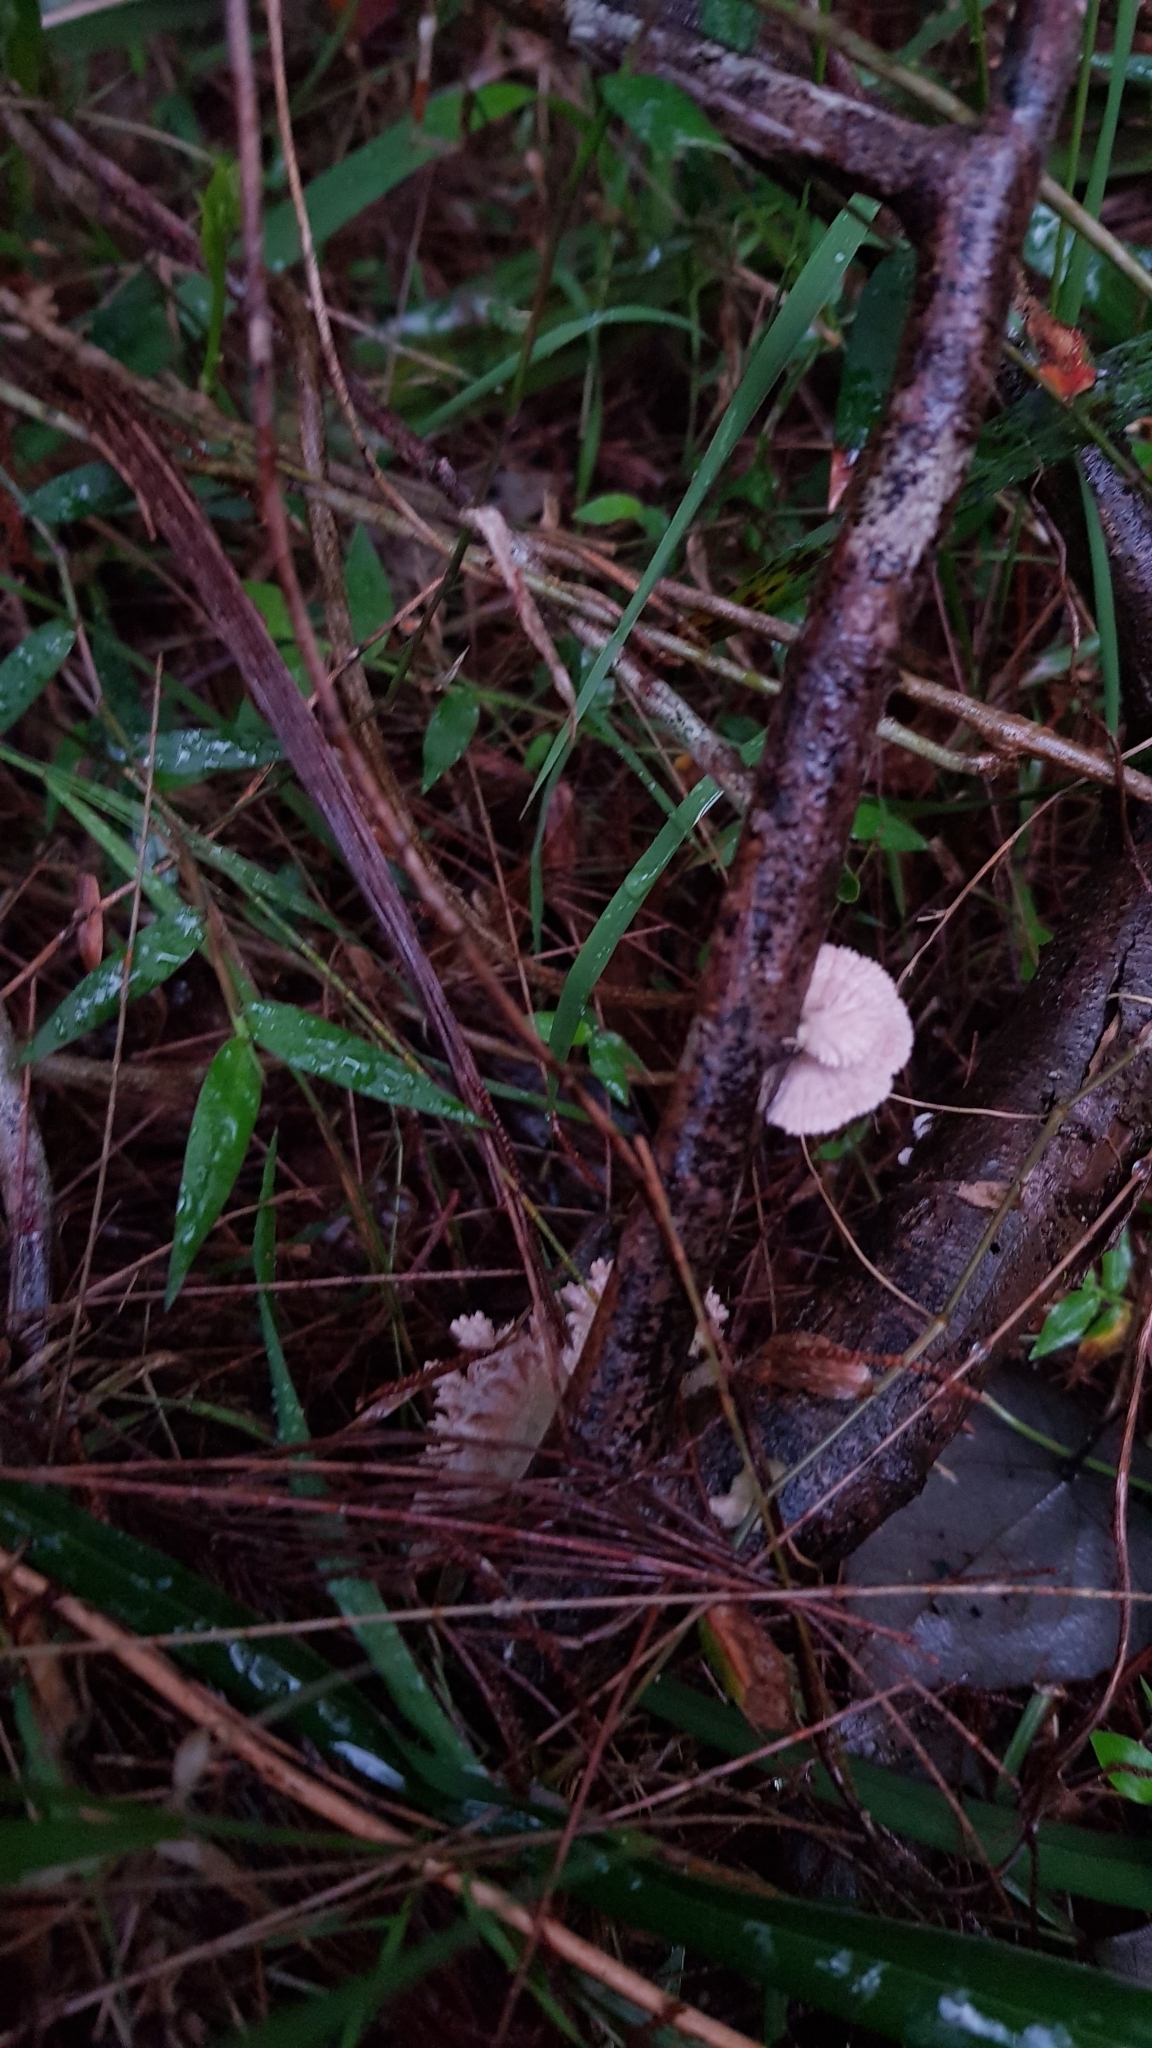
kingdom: Fungi
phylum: Basidiomycota
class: Agaricomycetes
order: Agaricales
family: Schizophyllaceae
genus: Schizophyllum
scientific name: Schizophyllum commune
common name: Common porecrust
